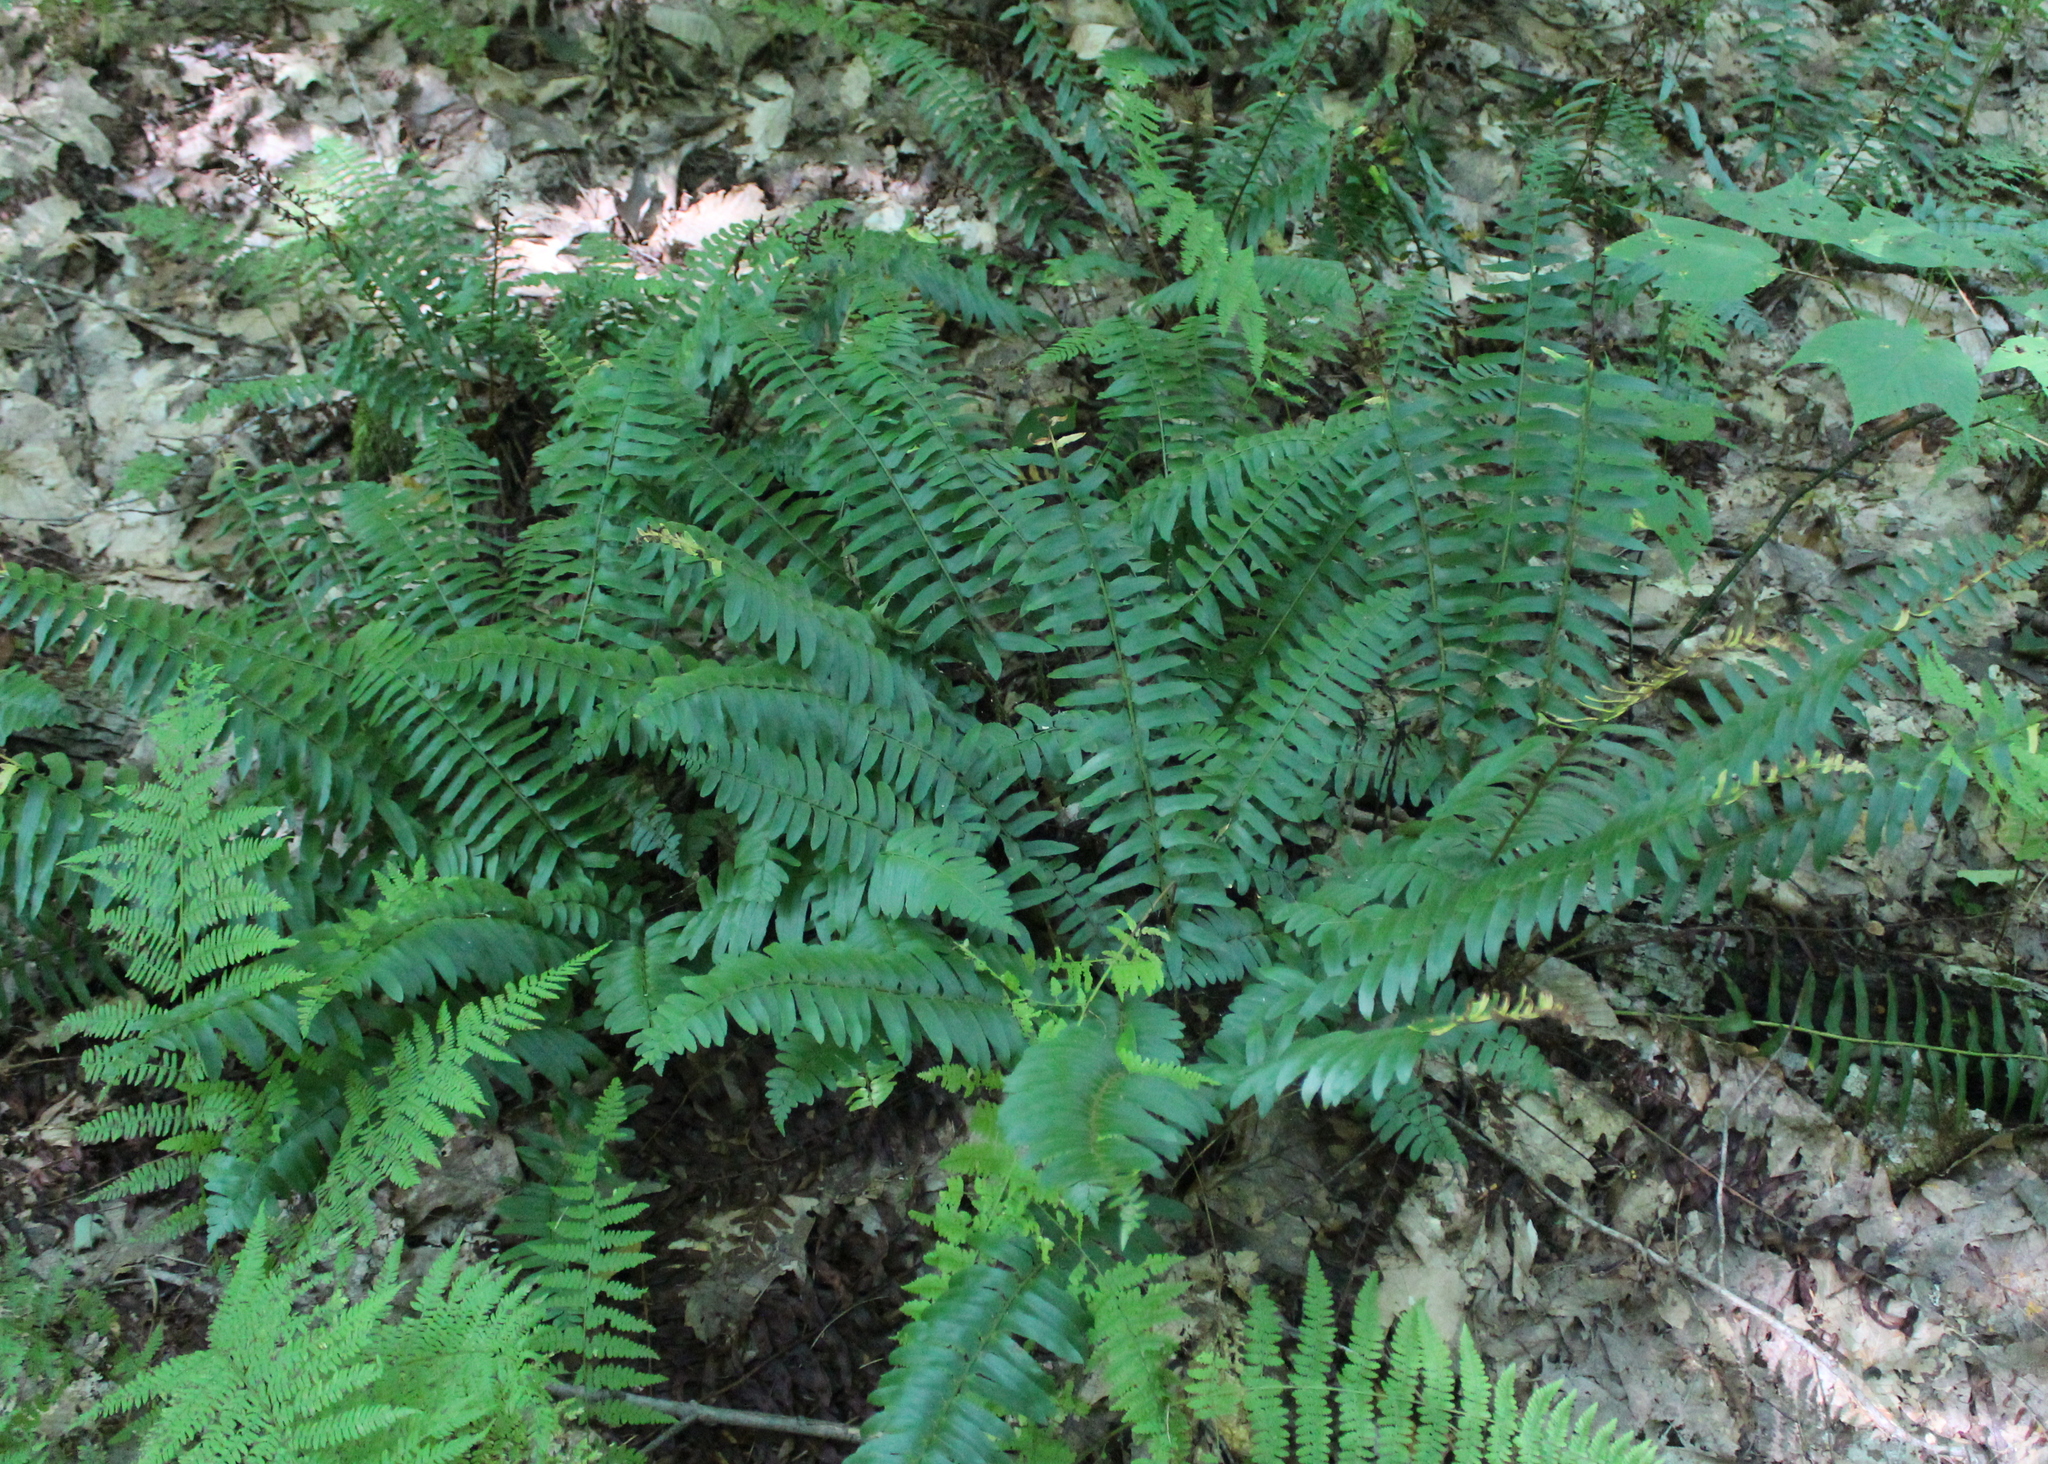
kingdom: Plantae
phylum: Tracheophyta
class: Polypodiopsida
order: Polypodiales
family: Dryopteridaceae
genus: Polystichum
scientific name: Polystichum acrostichoides
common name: Christmas fern
